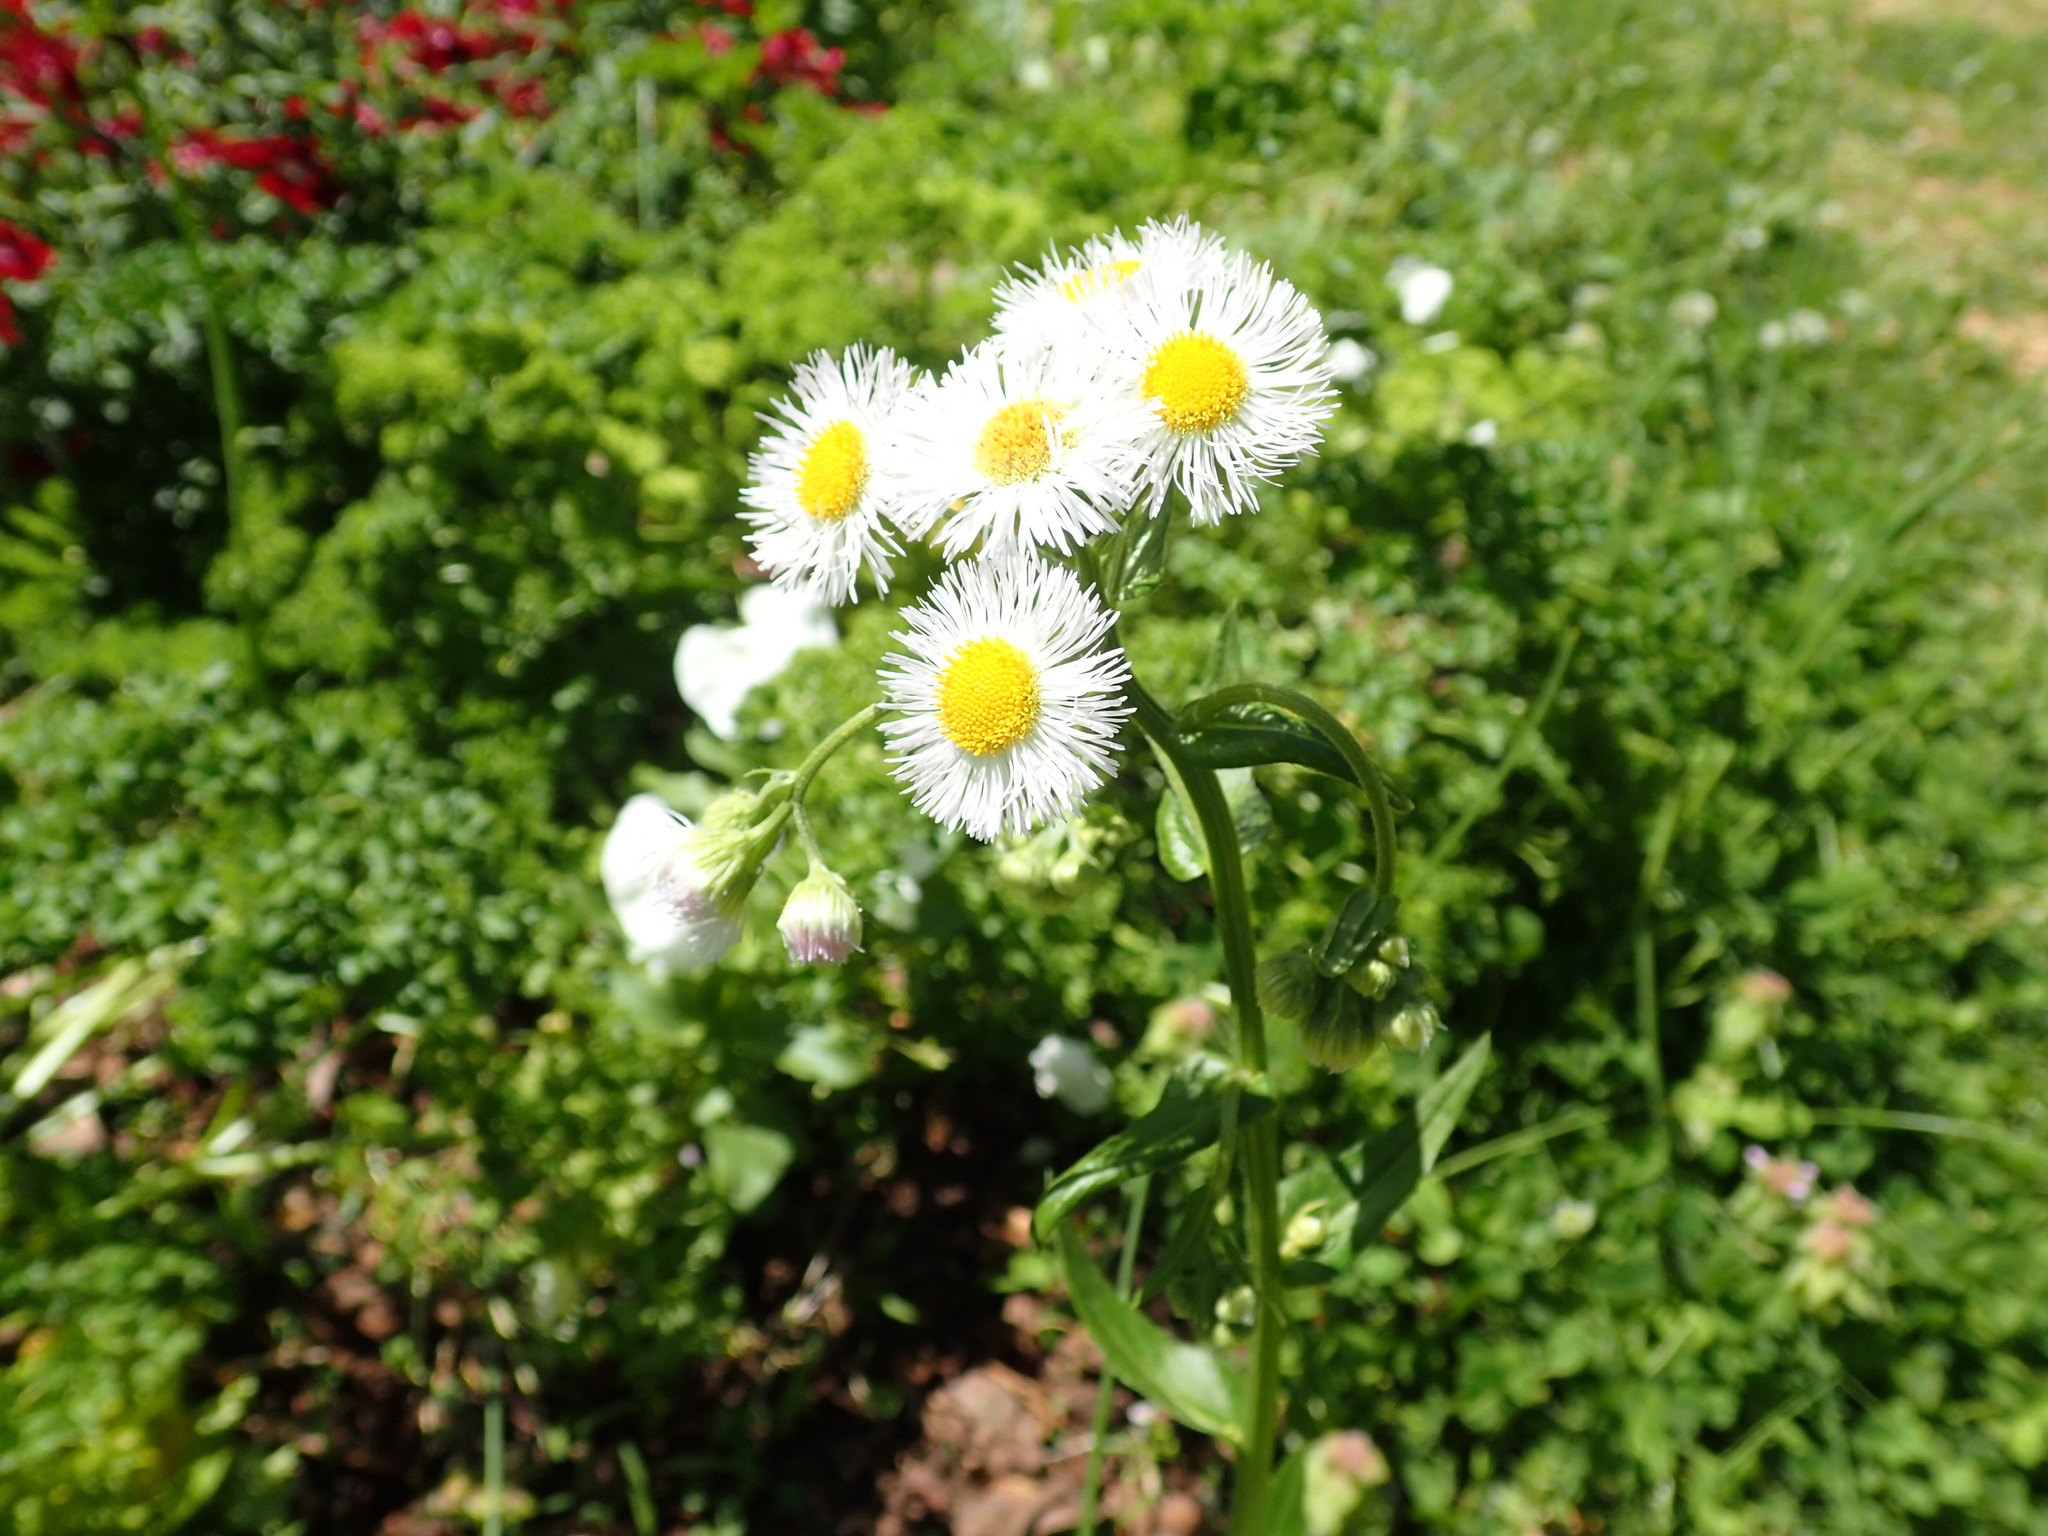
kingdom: Plantae
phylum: Tracheophyta
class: Magnoliopsida
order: Asterales
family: Asteraceae
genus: Erigeron
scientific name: Erigeron annuus
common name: Tall fleabane
